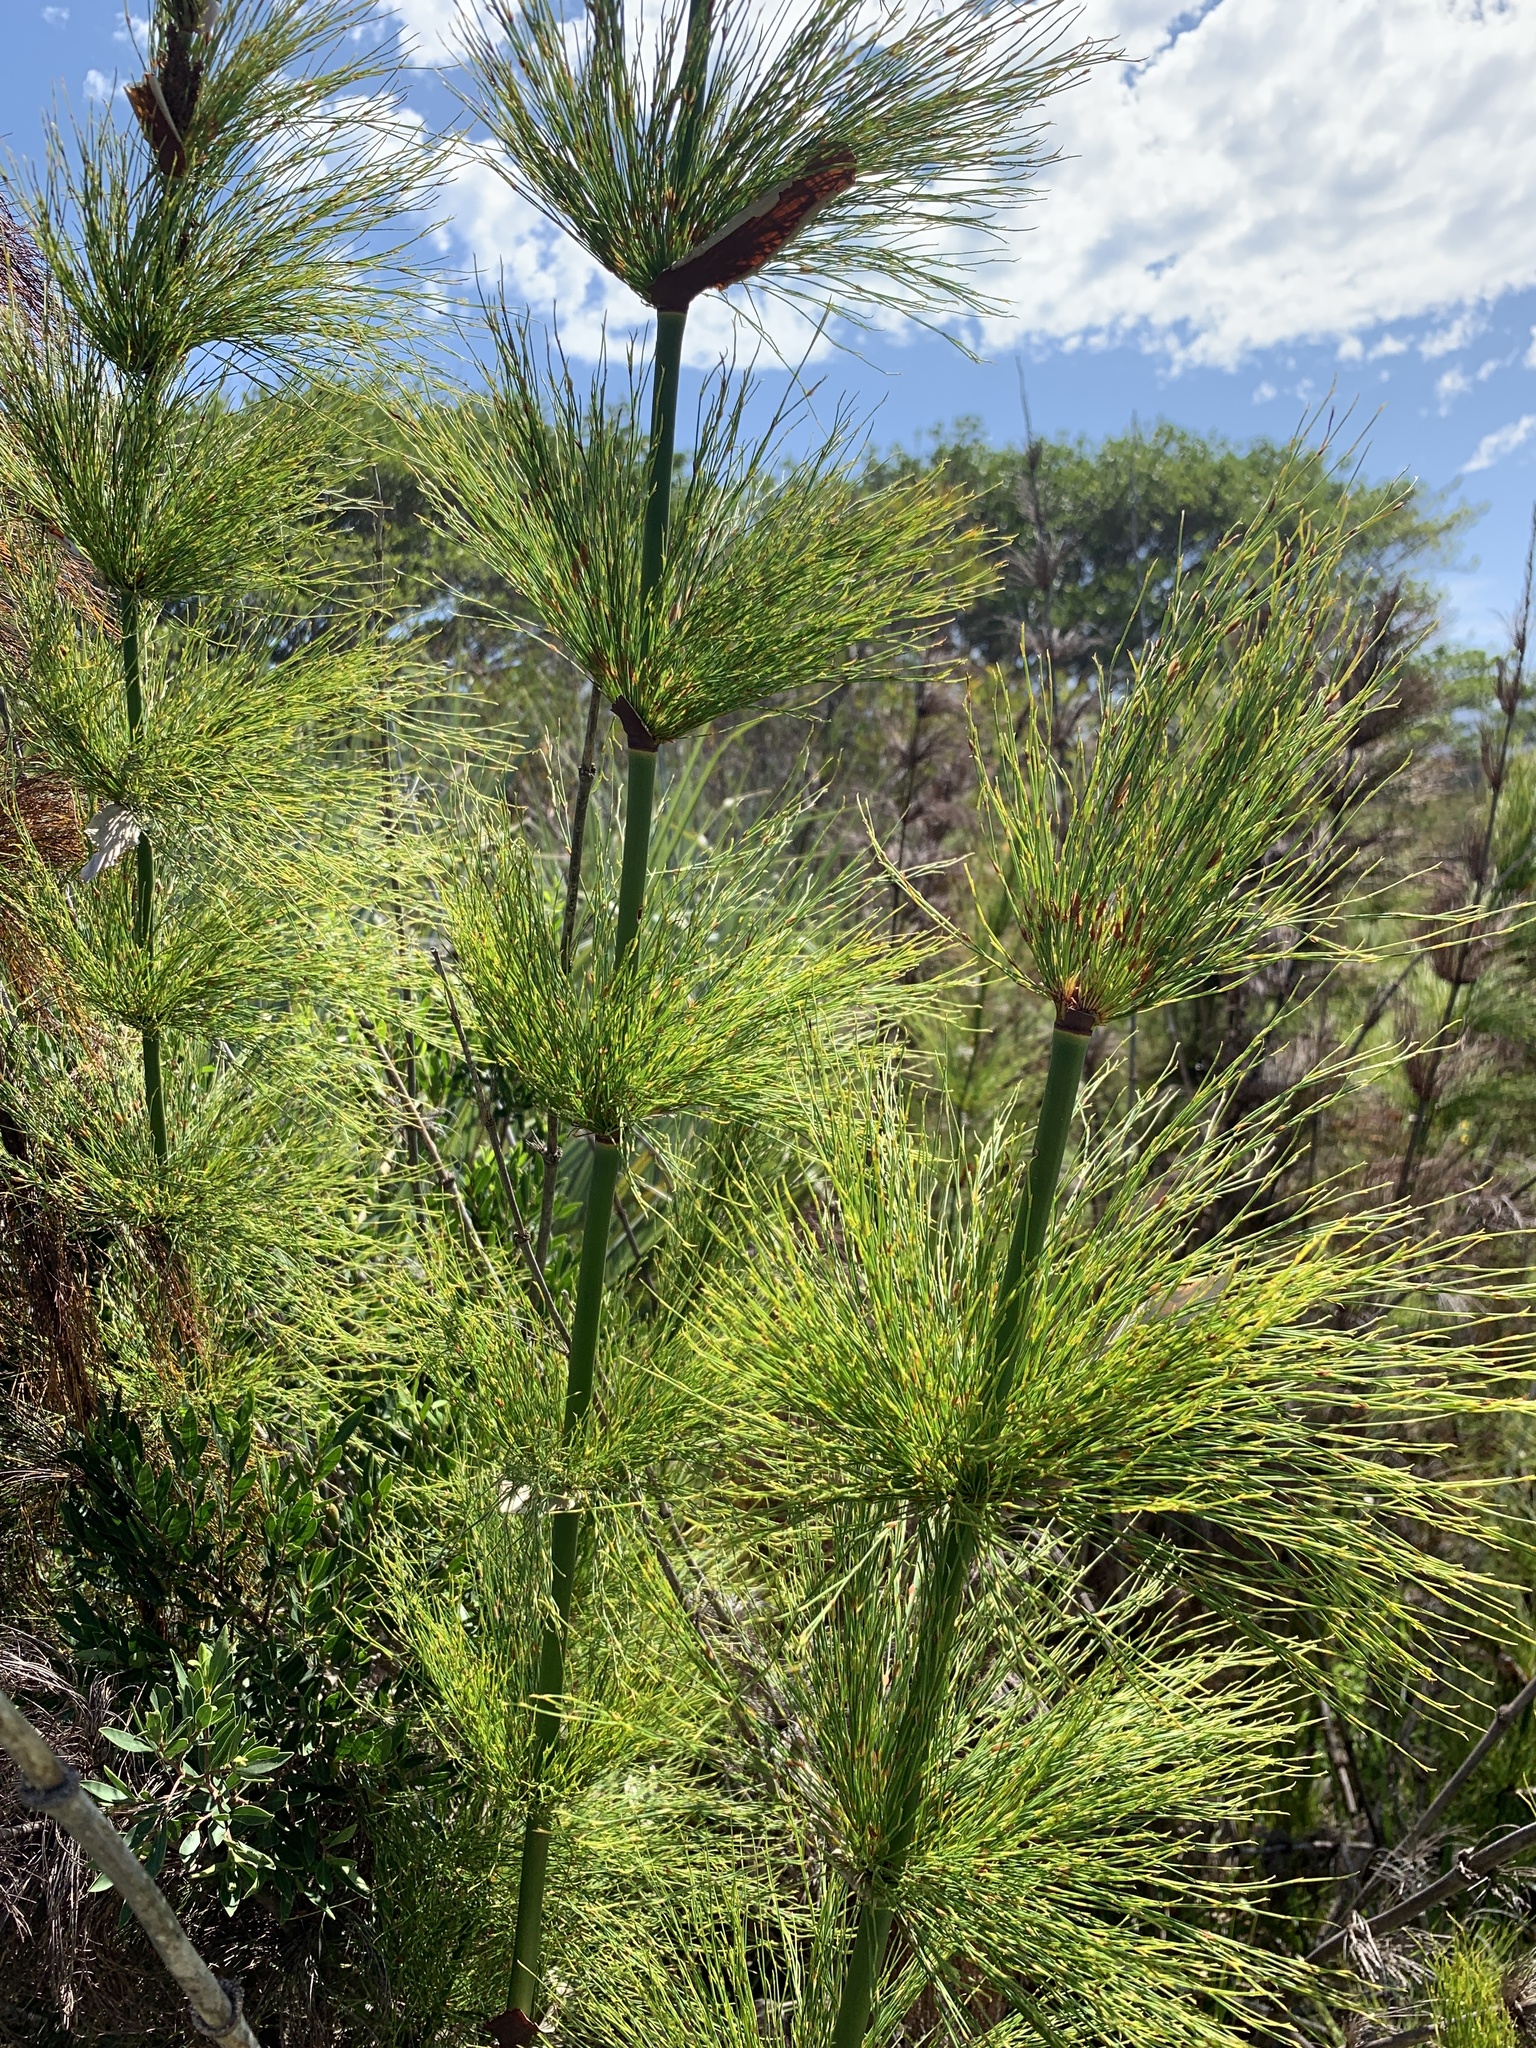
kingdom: Plantae
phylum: Tracheophyta
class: Liliopsida
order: Poales
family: Restionaceae
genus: Elegia
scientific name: Elegia capensis
